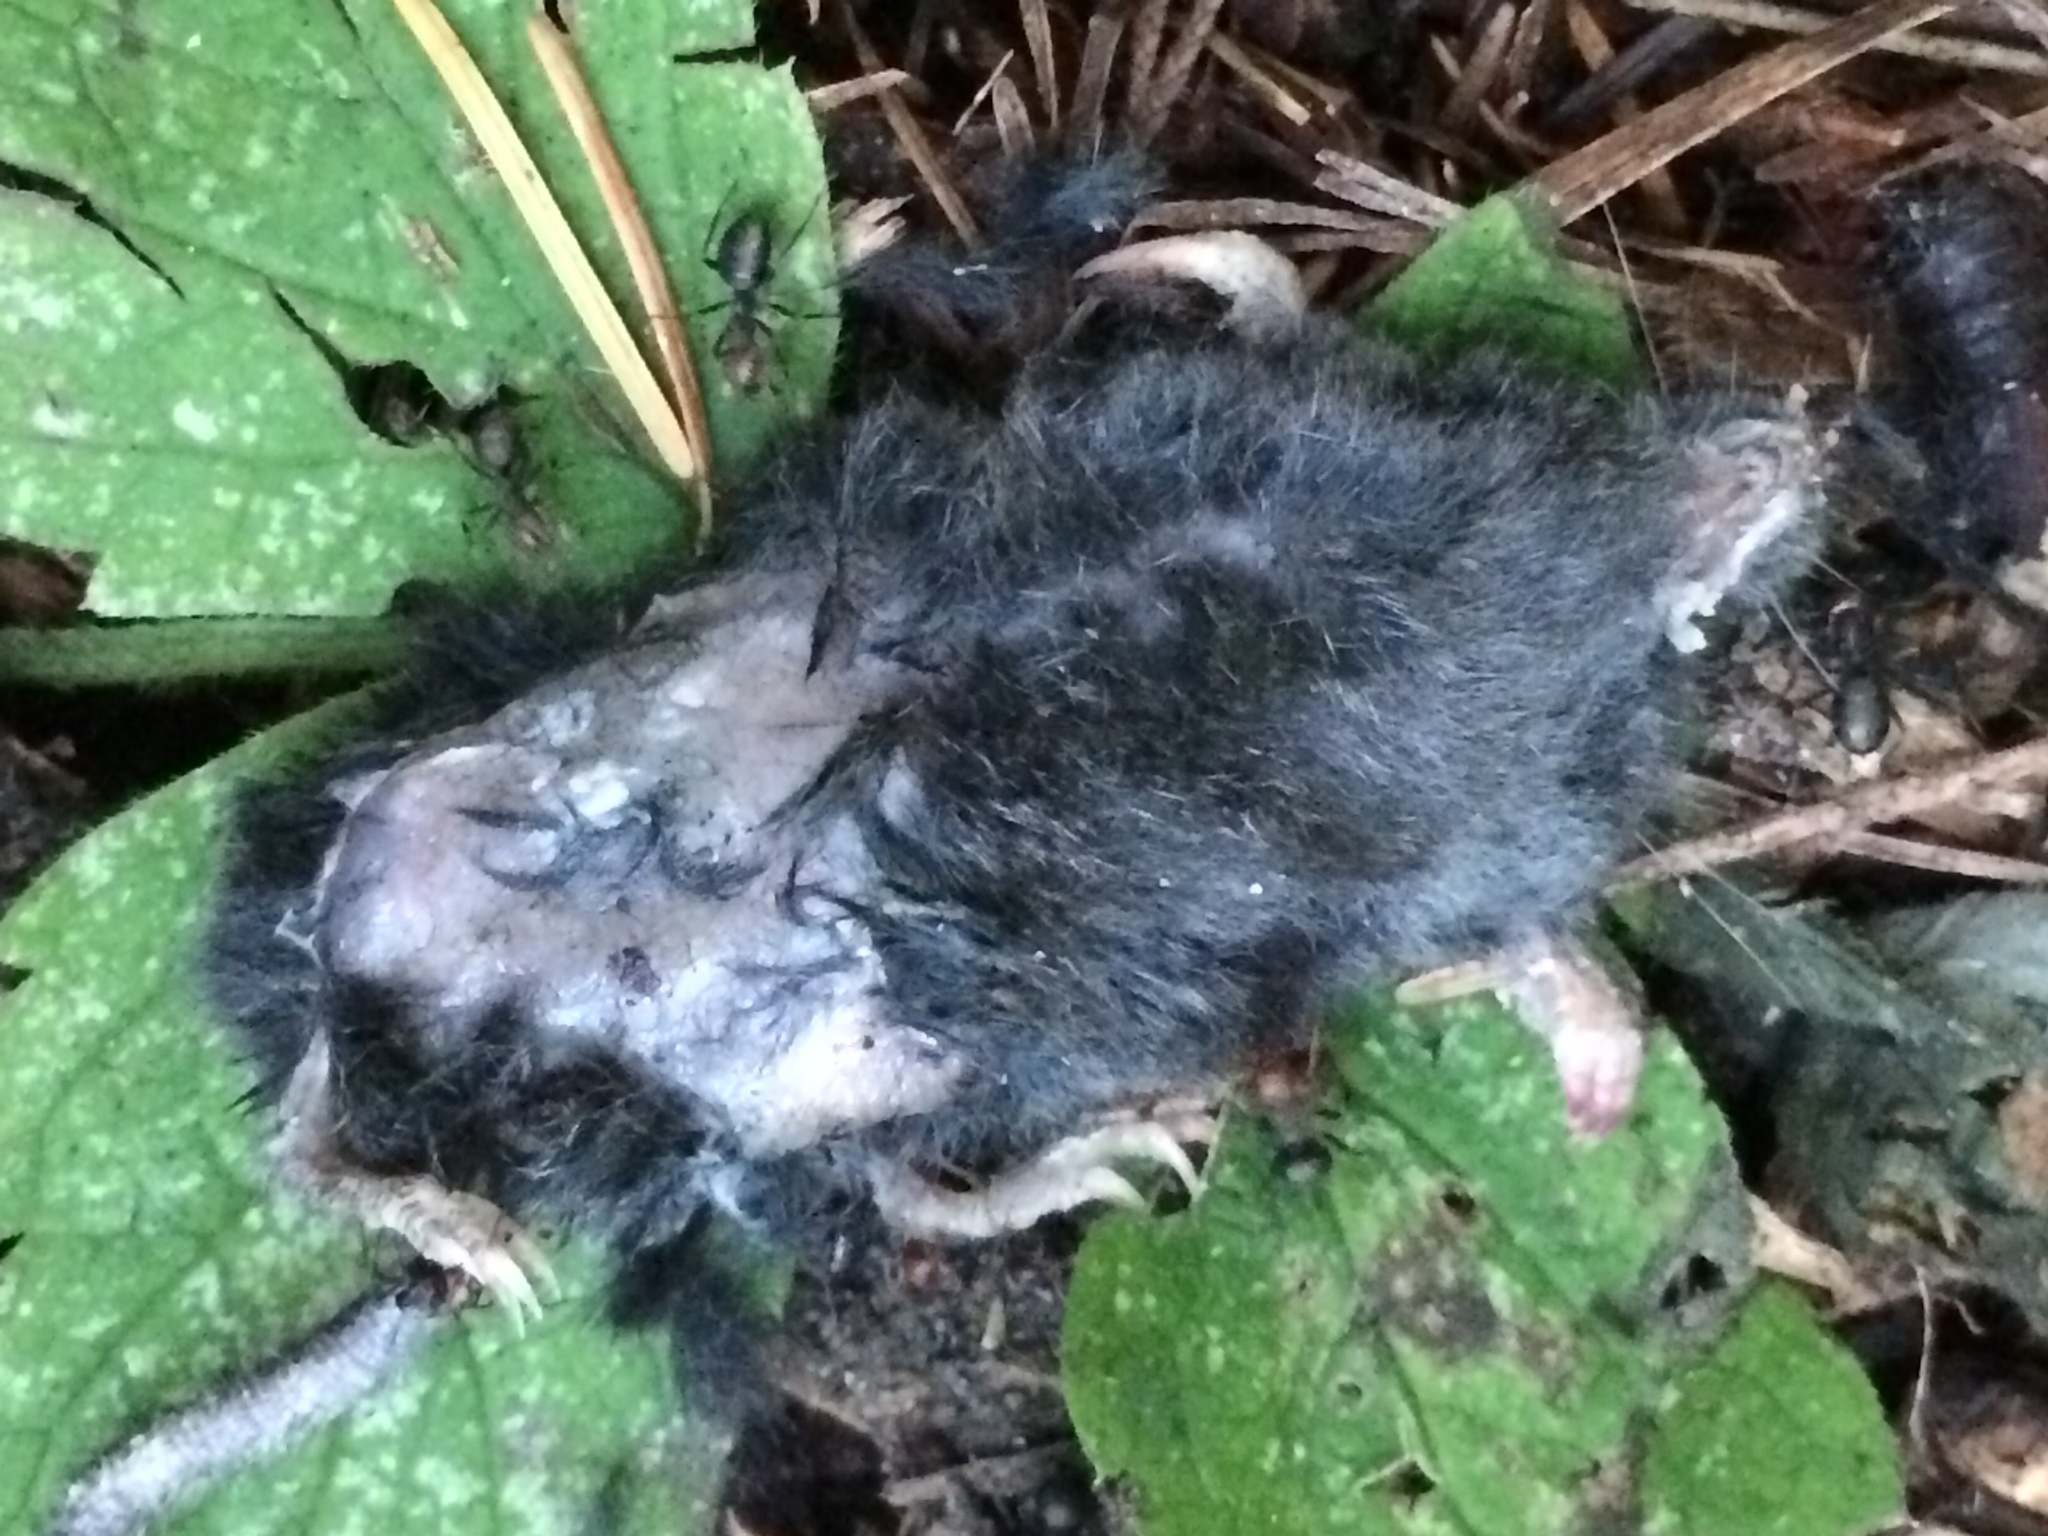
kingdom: Animalia
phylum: Chordata
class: Mammalia
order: Soricomorpha
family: Talpidae
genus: Neurotrichus
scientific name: Neurotrichus gibbsii
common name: American shrew mole
